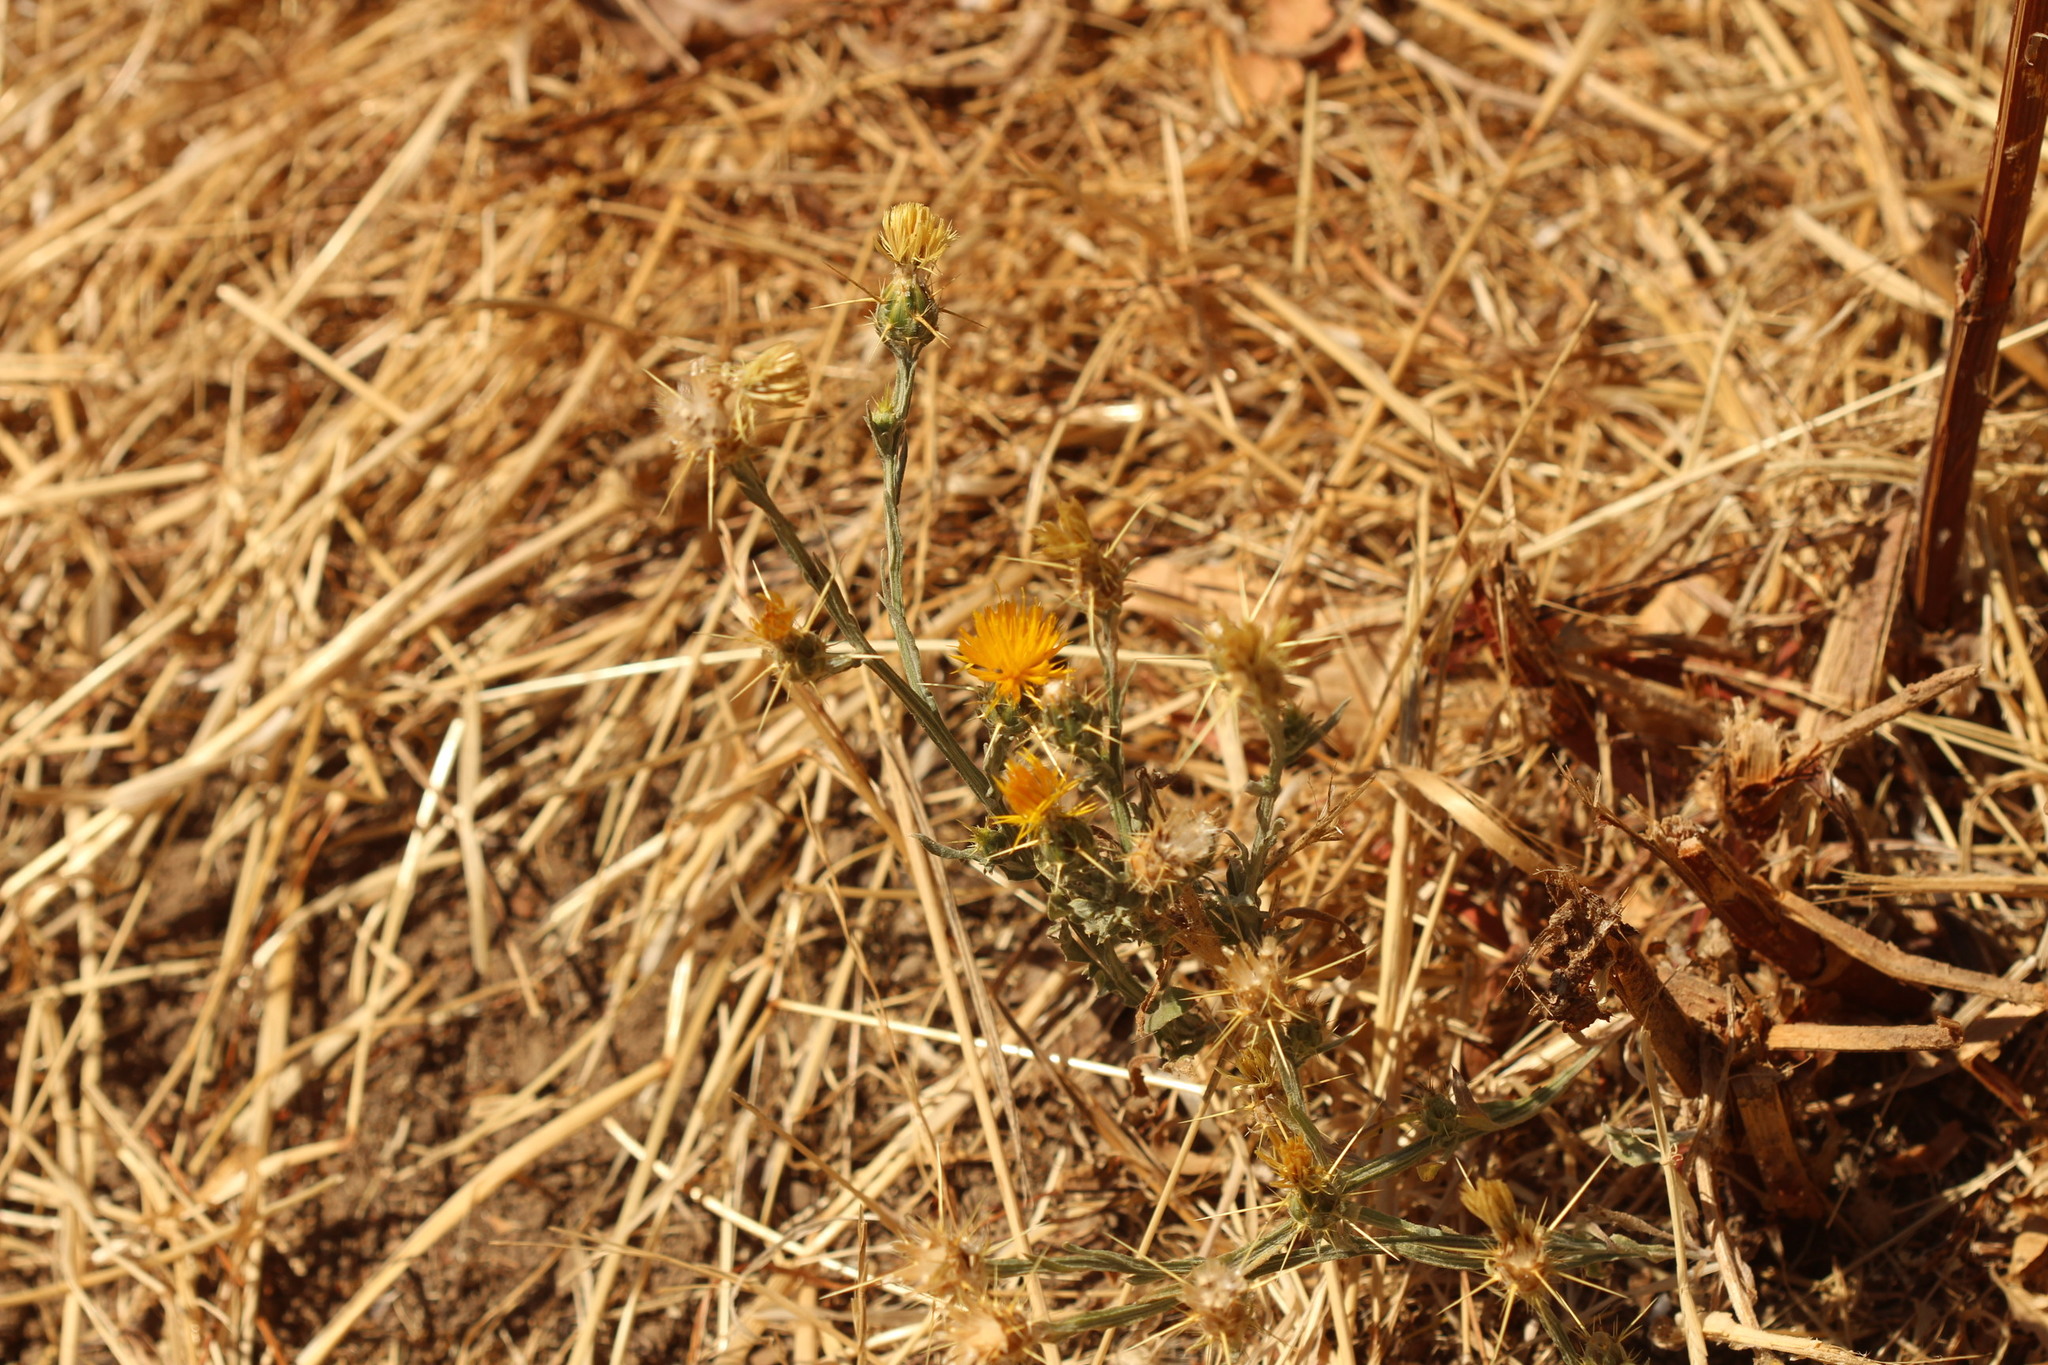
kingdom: Plantae
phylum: Tracheophyta
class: Magnoliopsida
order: Asterales
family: Asteraceae
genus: Centaurea
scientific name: Centaurea solstitialis
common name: Yellow star-thistle
